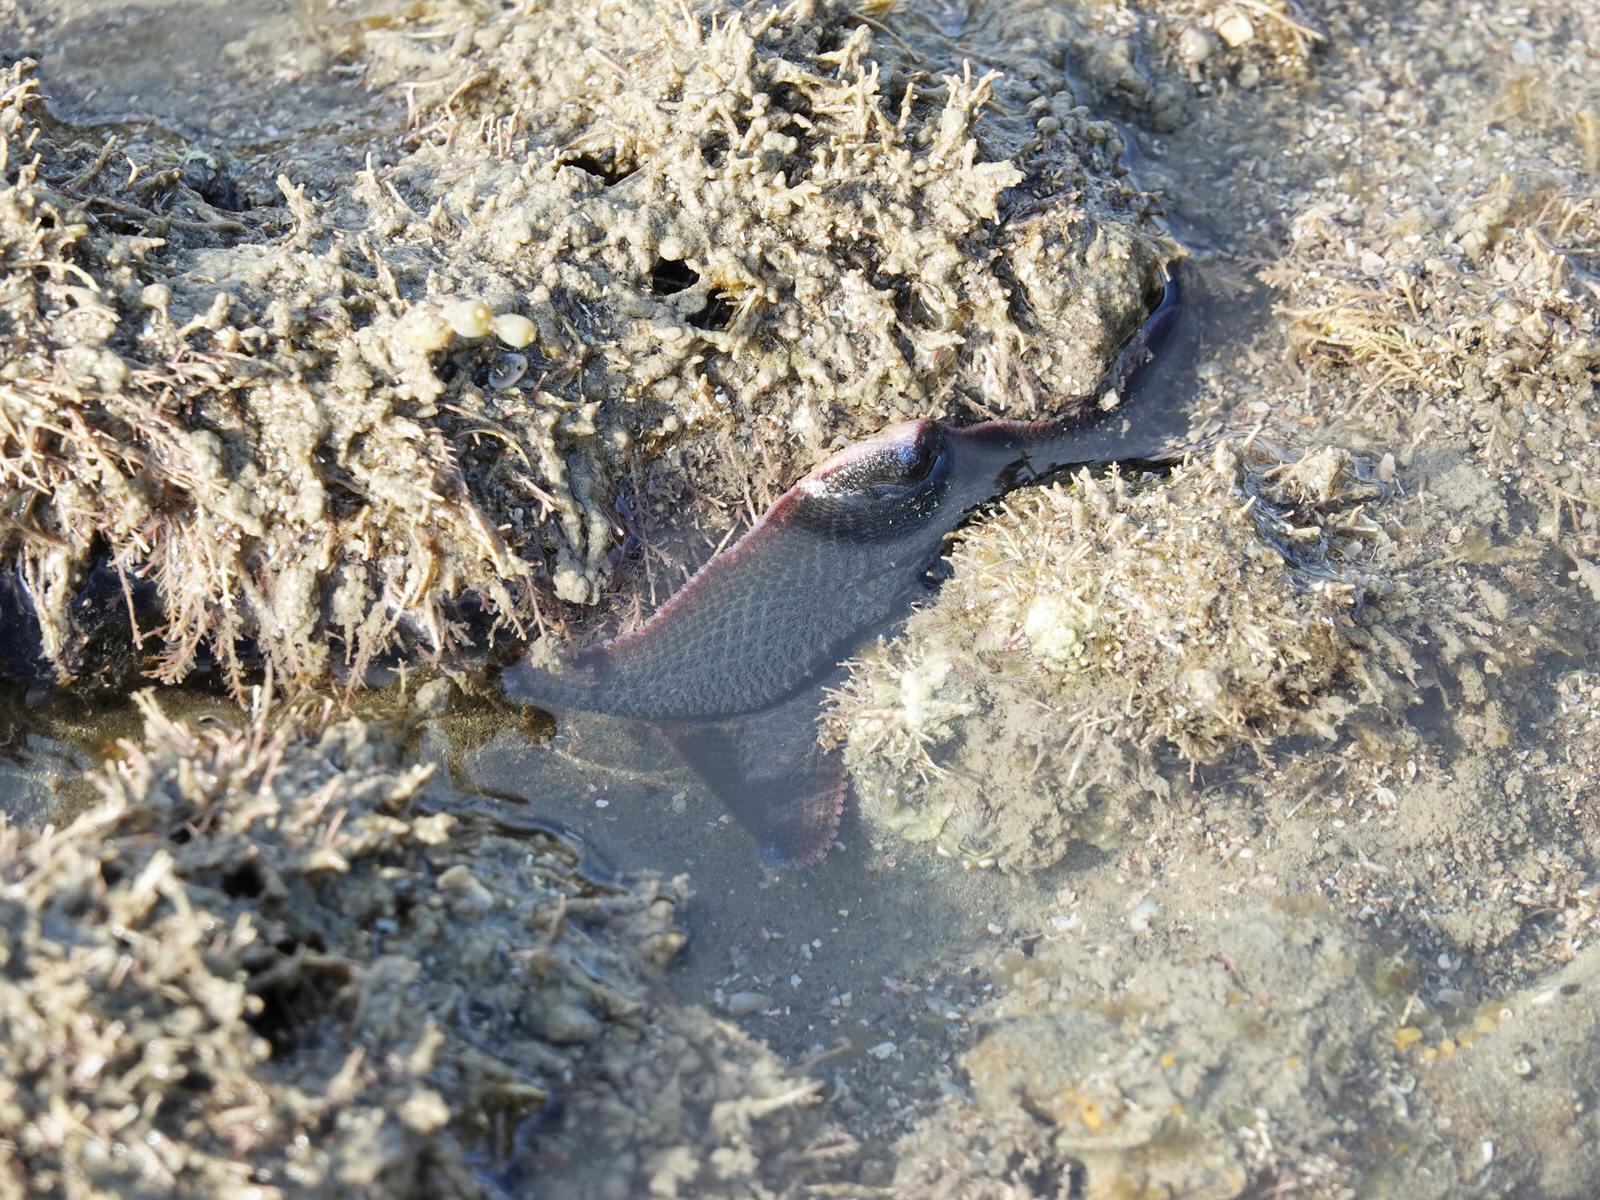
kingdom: Animalia
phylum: Echinodermata
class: Asteroidea
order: Valvatida
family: Asterinidae
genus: Patiriella
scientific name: Patiriella regularis
